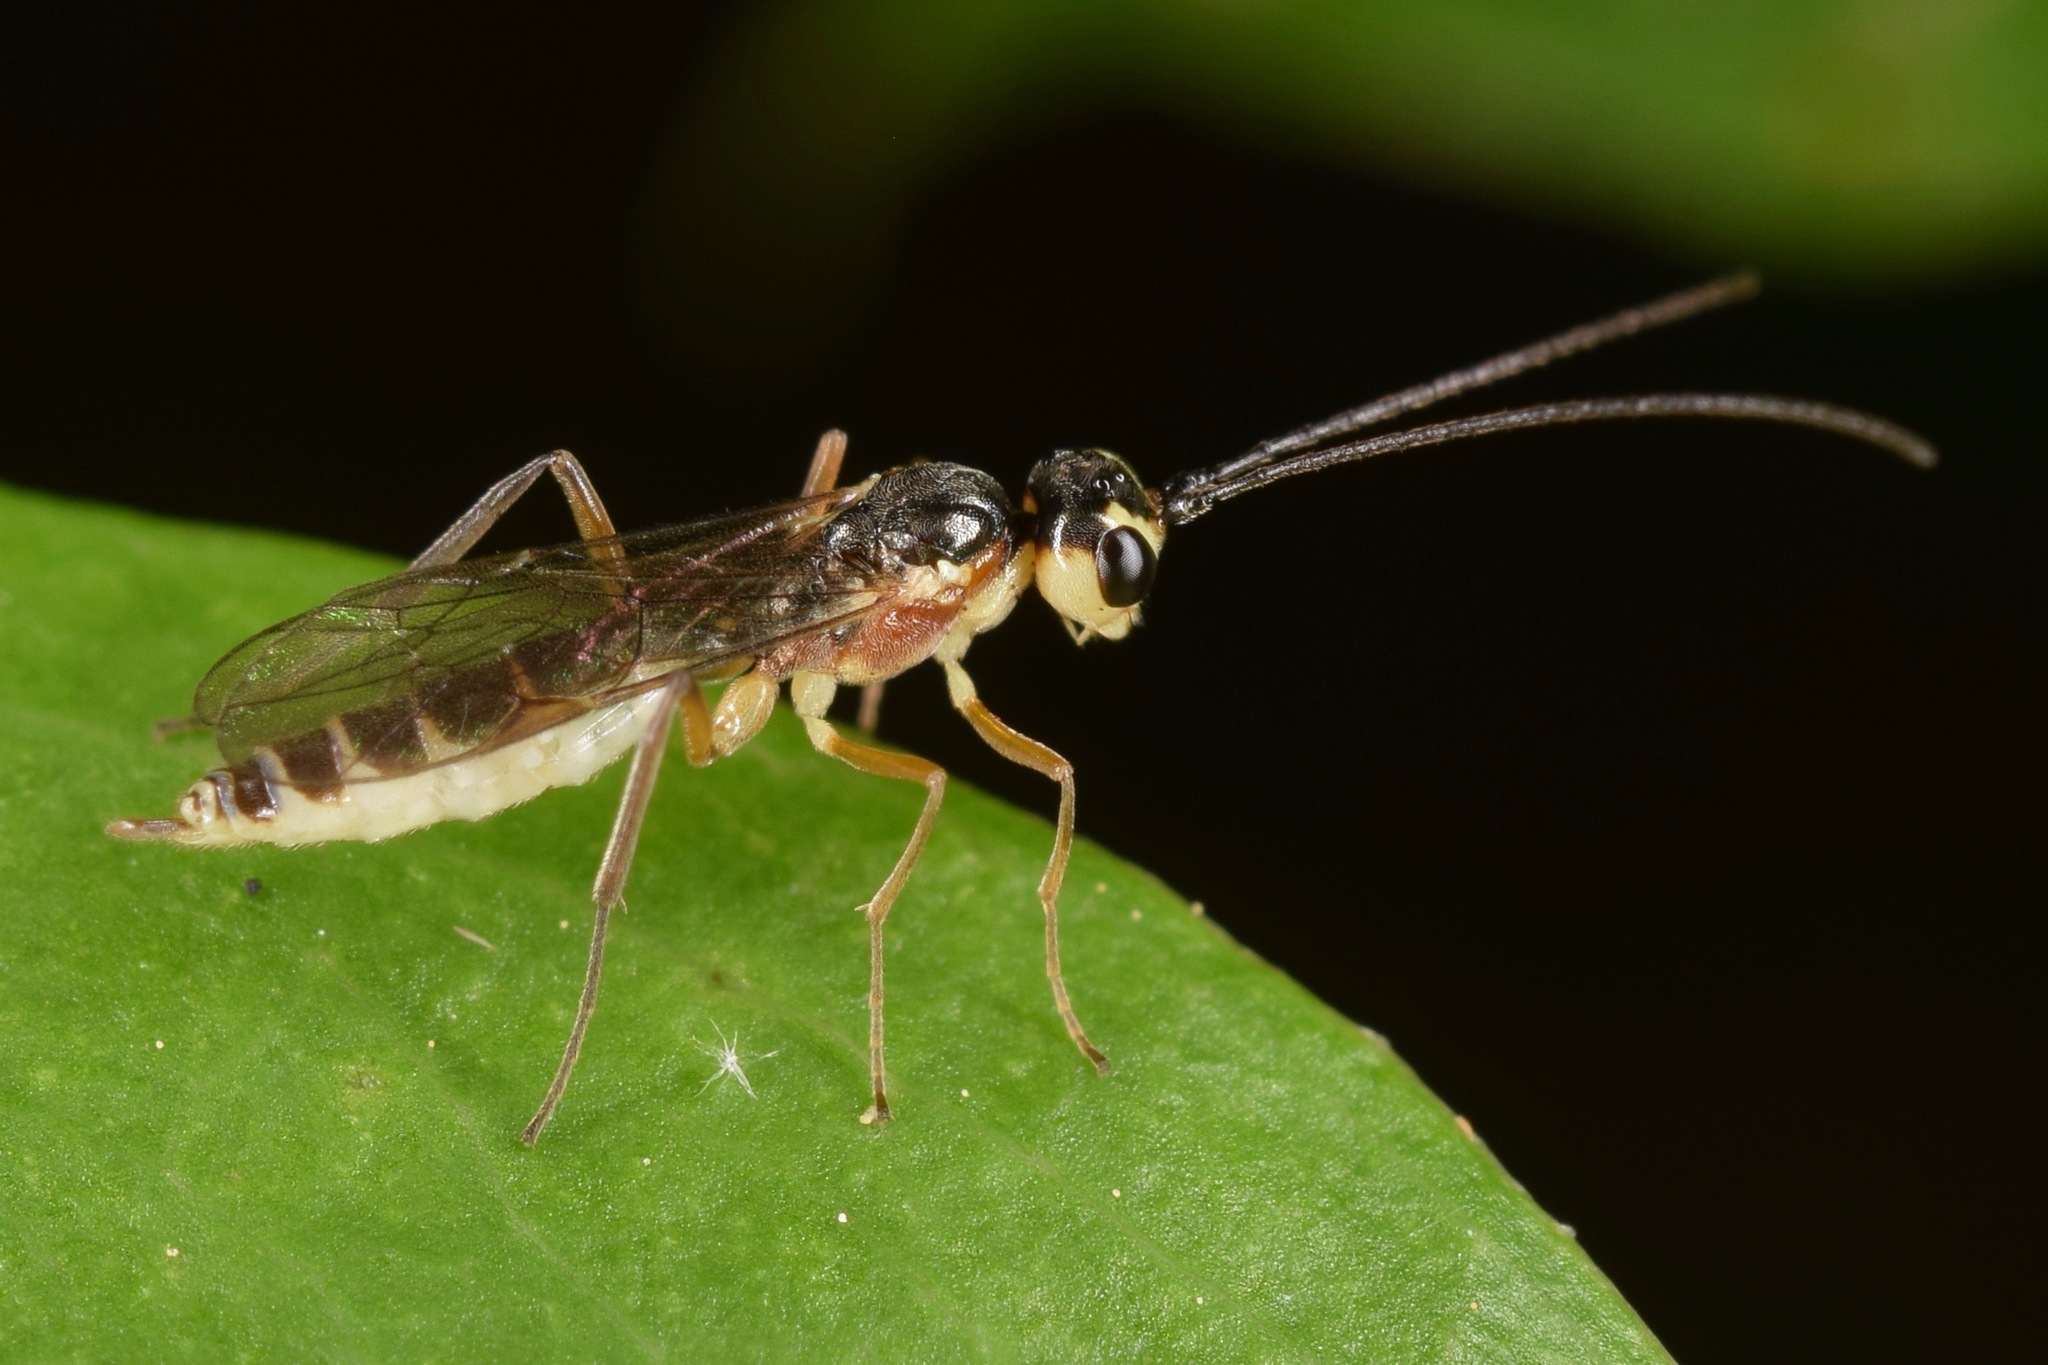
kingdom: Animalia
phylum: Arthropoda
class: Insecta
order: Hymenoptera
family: Ichneumonidae
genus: Hercus
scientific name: Hercus fontinalis
